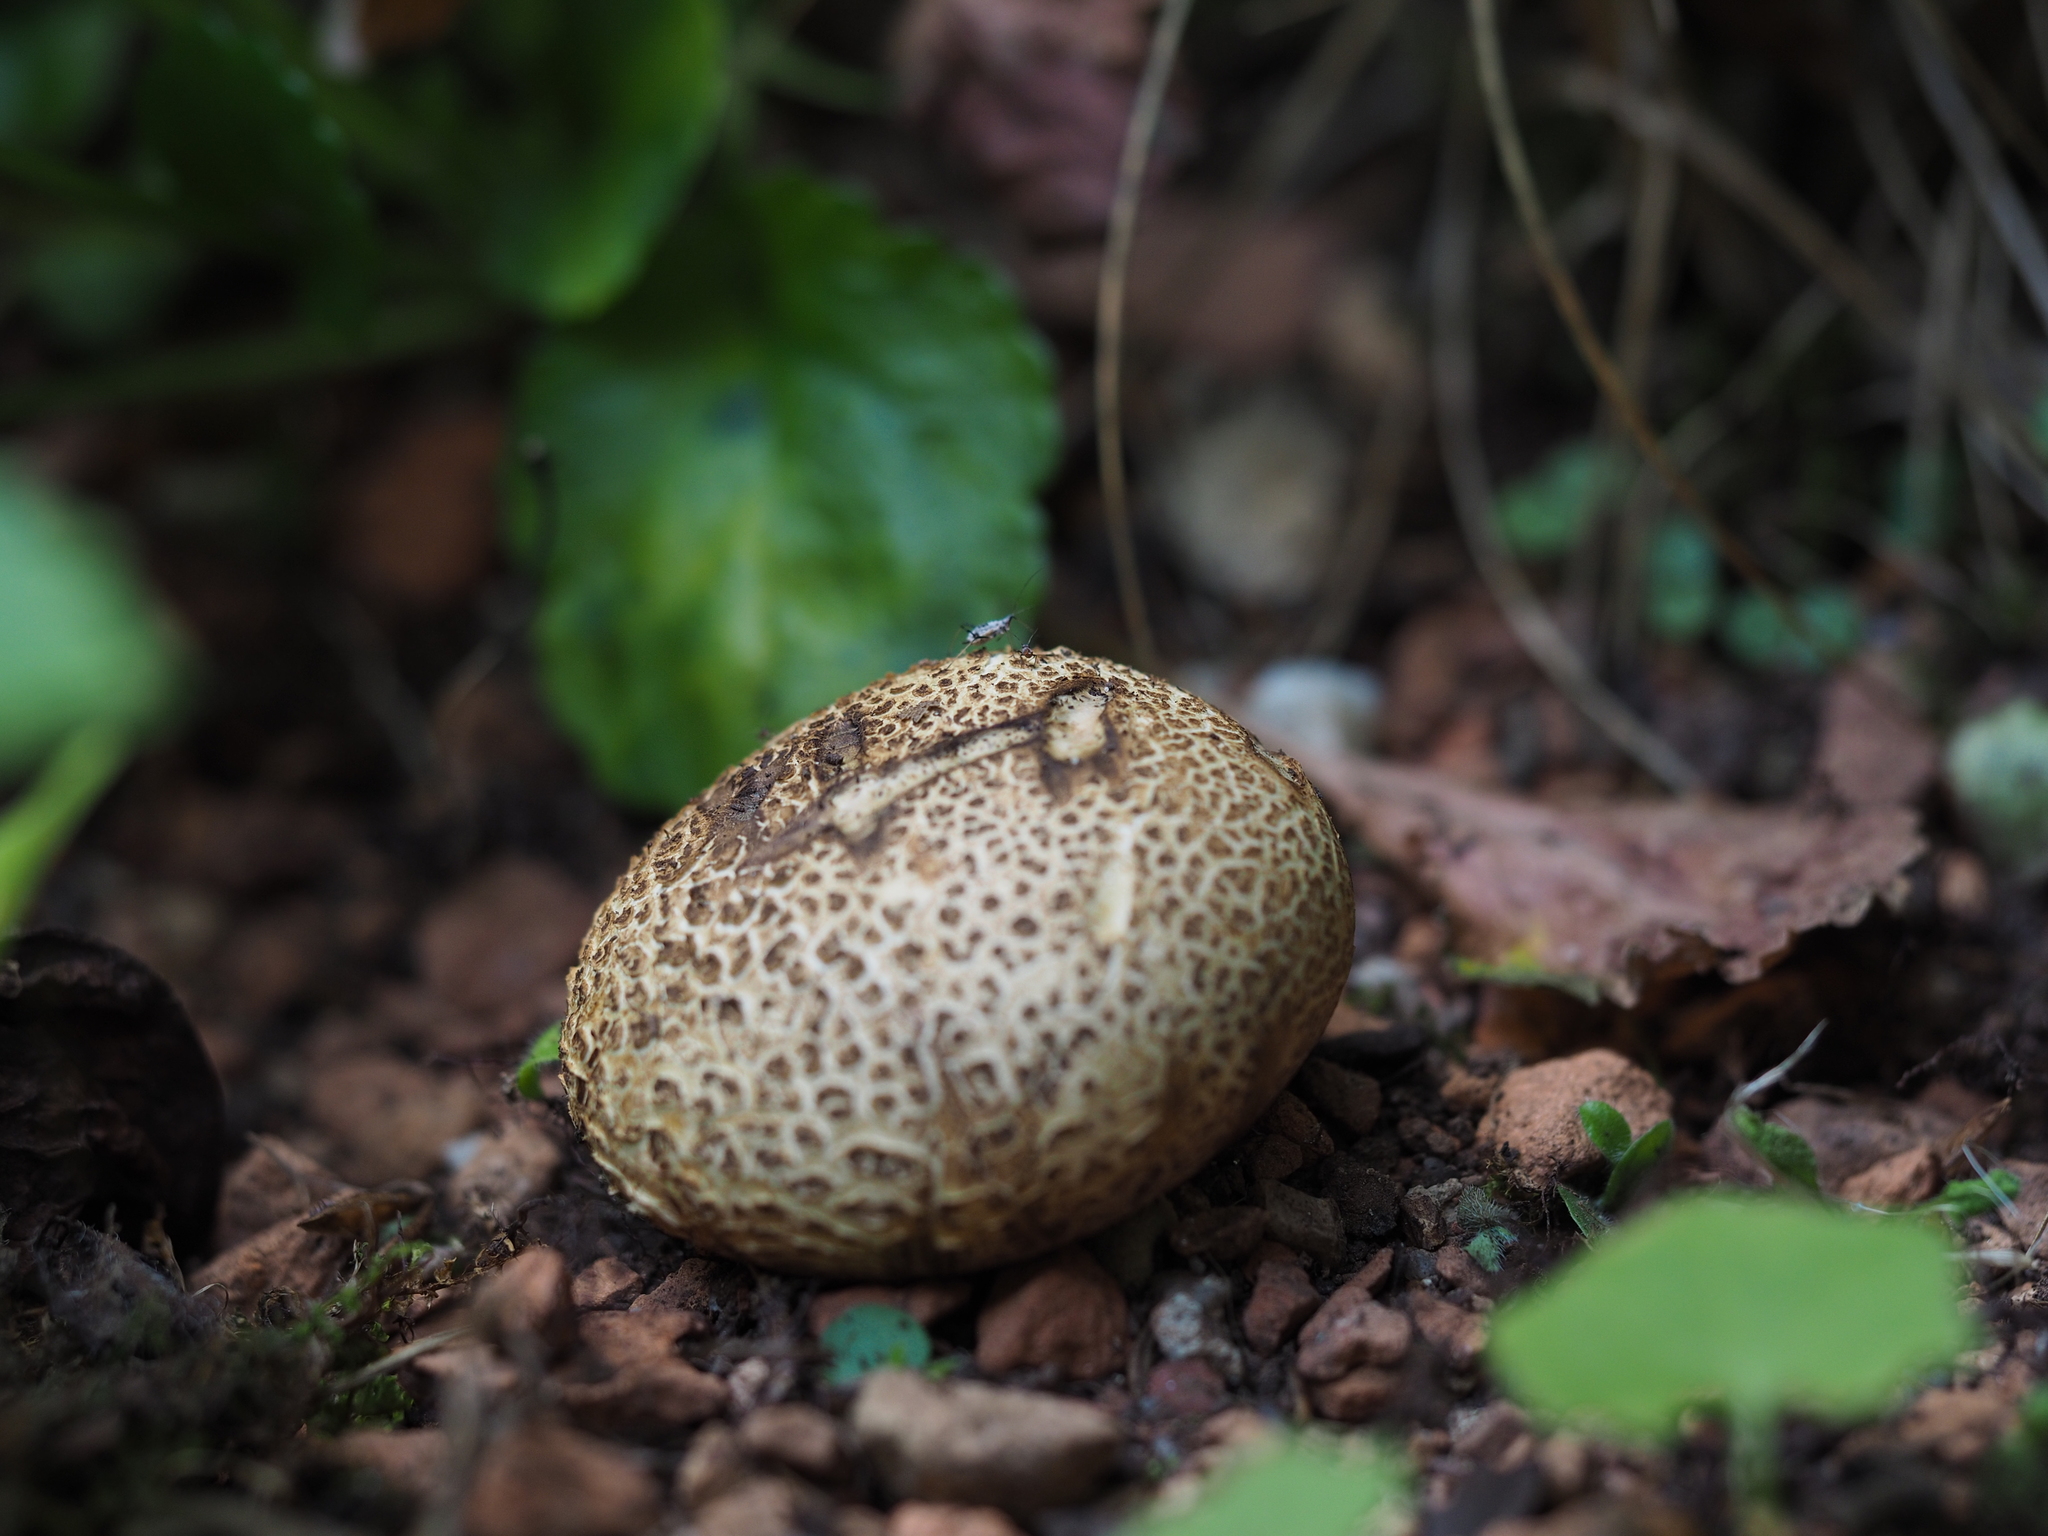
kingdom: Fungi
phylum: Basidiomycota
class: Agaricomycetes
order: Boletales
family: Sclerodermataceae
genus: Scleroderma
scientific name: Scleroderma
